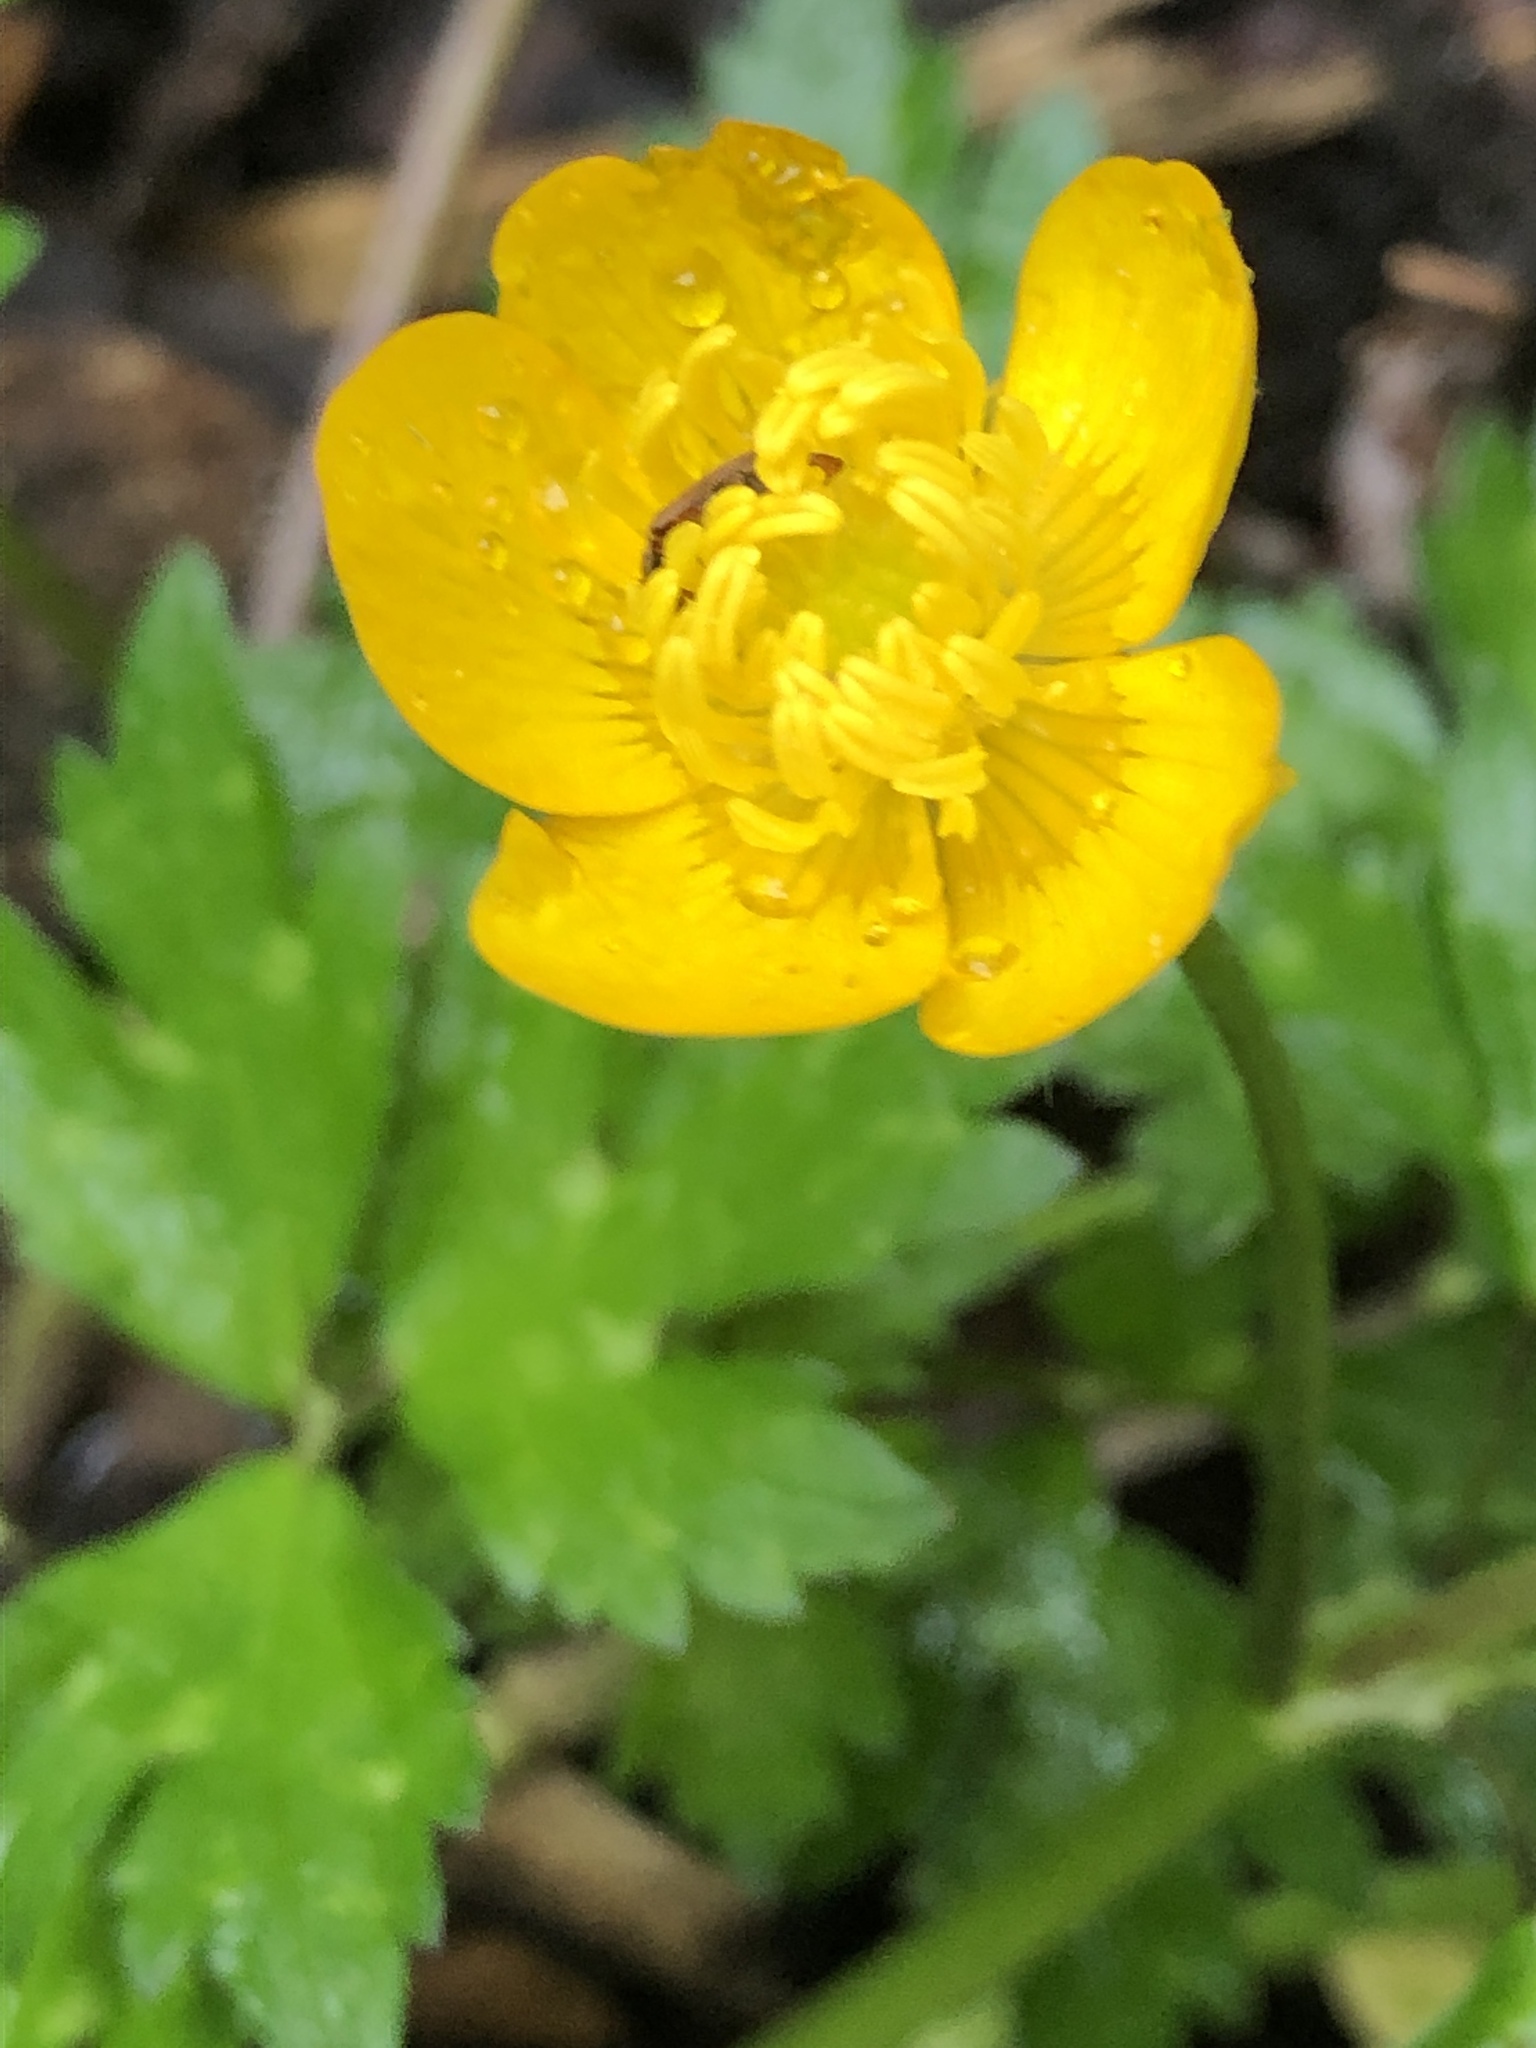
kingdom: Plantae
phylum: Tracheophyta
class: Magnoliopsida
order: Ranunculales
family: Ranunculaceae
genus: Ranunculus
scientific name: Ranunculus repens
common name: Creeping buttercup
